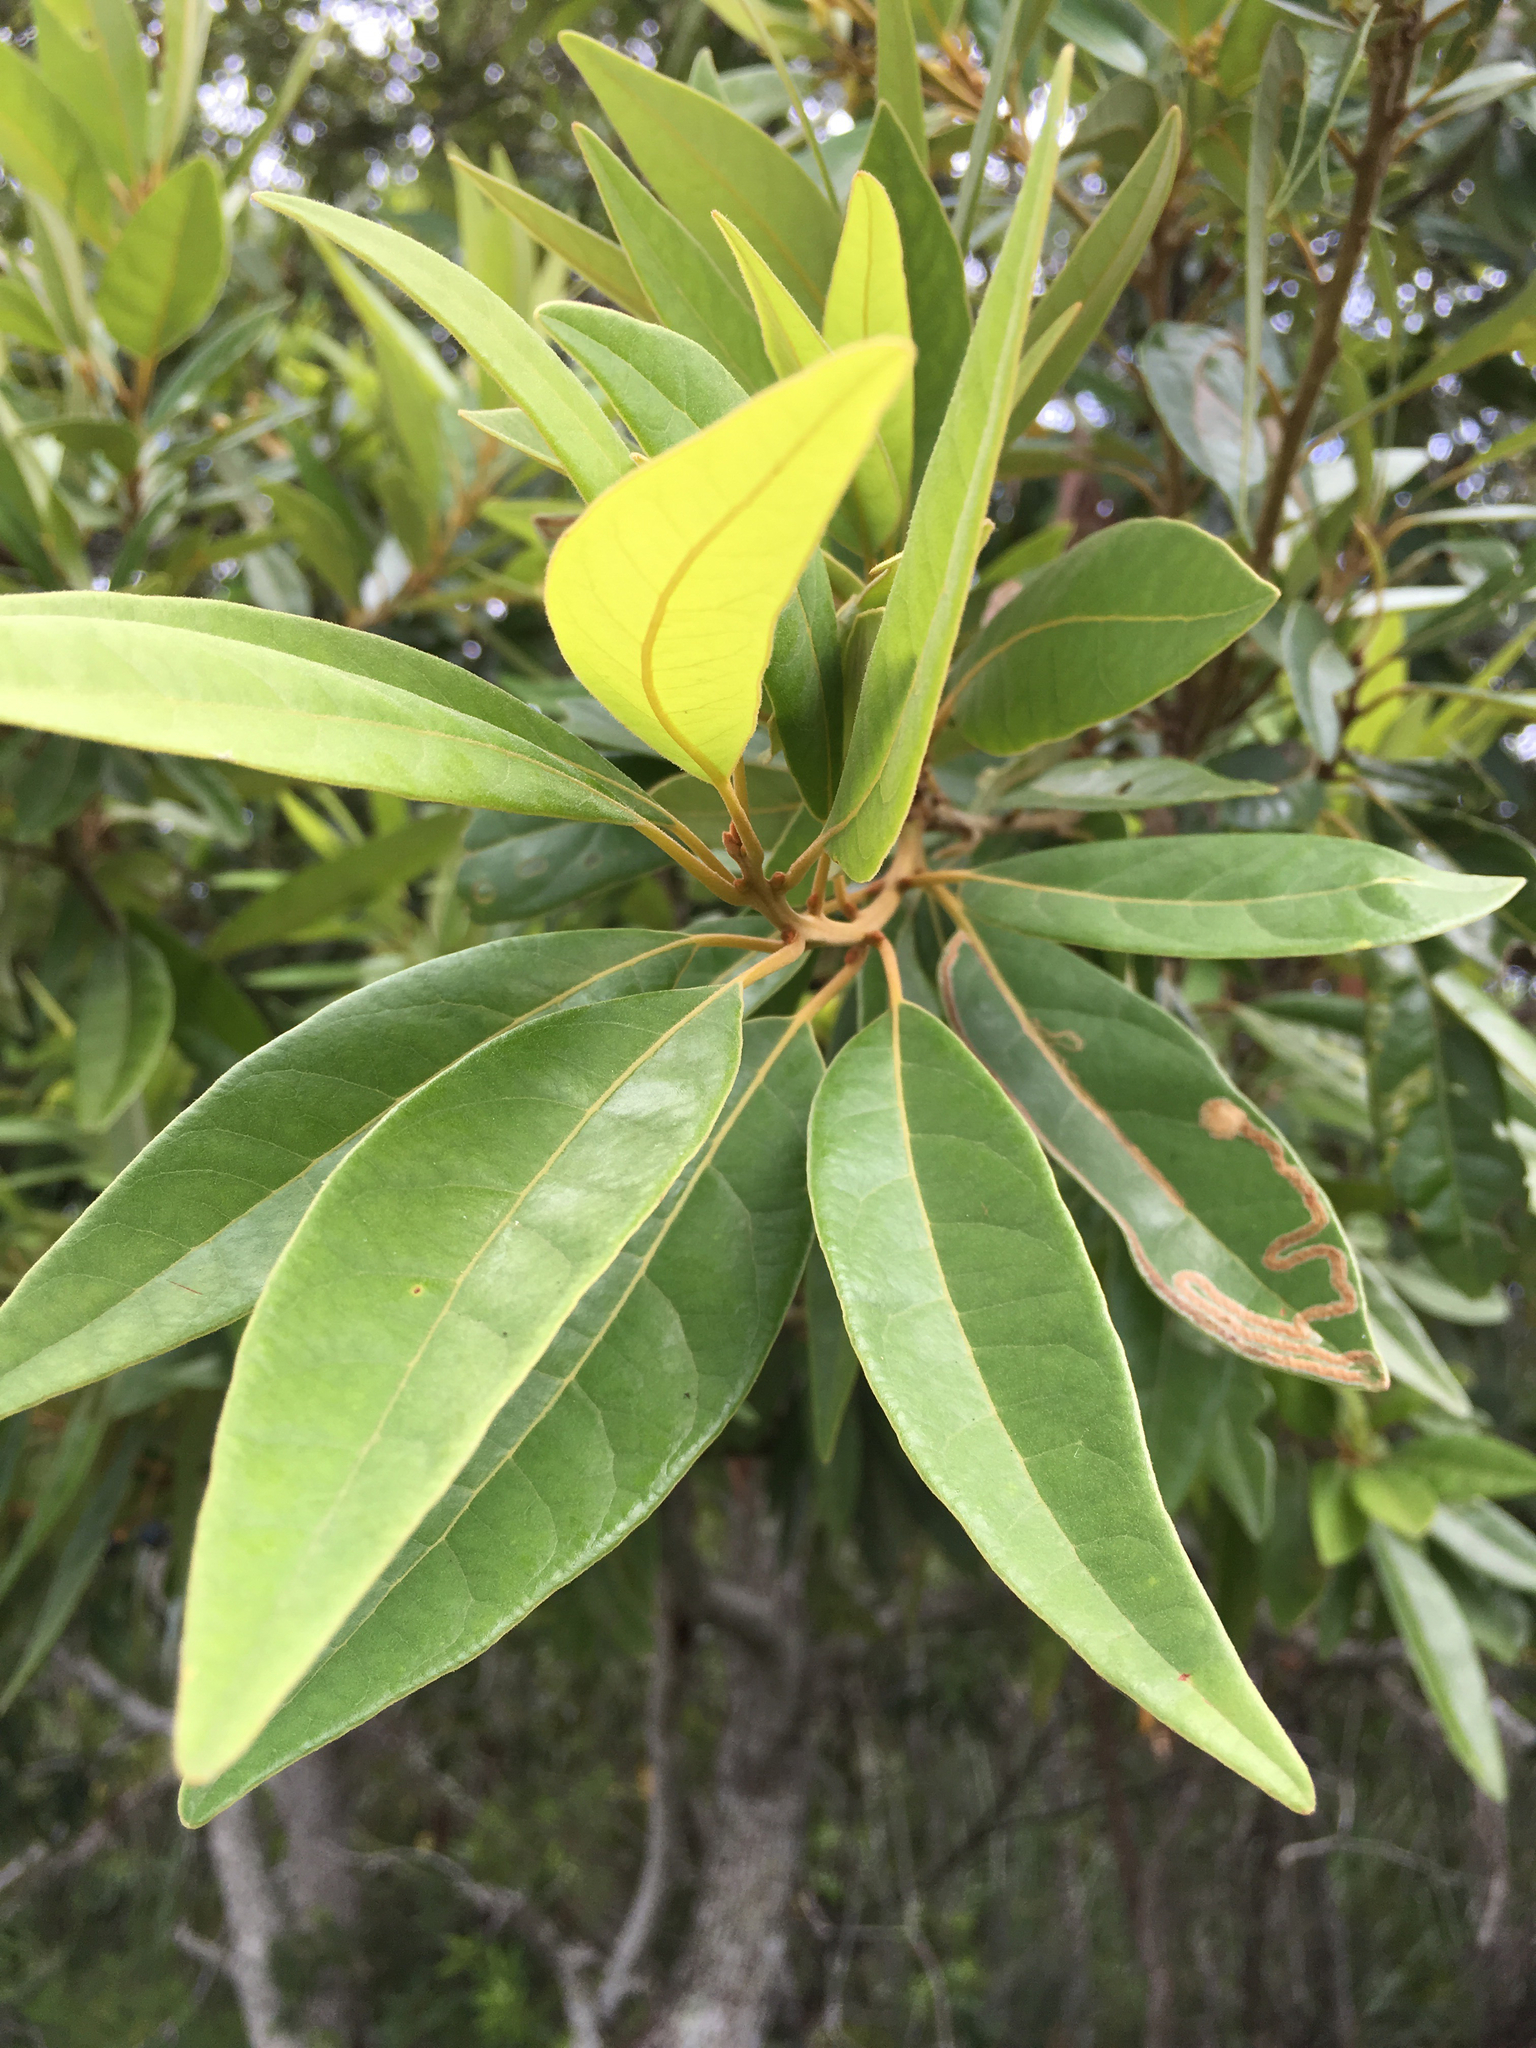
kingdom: Plantae
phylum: Tracheophyta
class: Magnoliopsida
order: Laurales
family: Lauraceae
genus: Persea
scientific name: Persea borbonia
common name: Redbay
